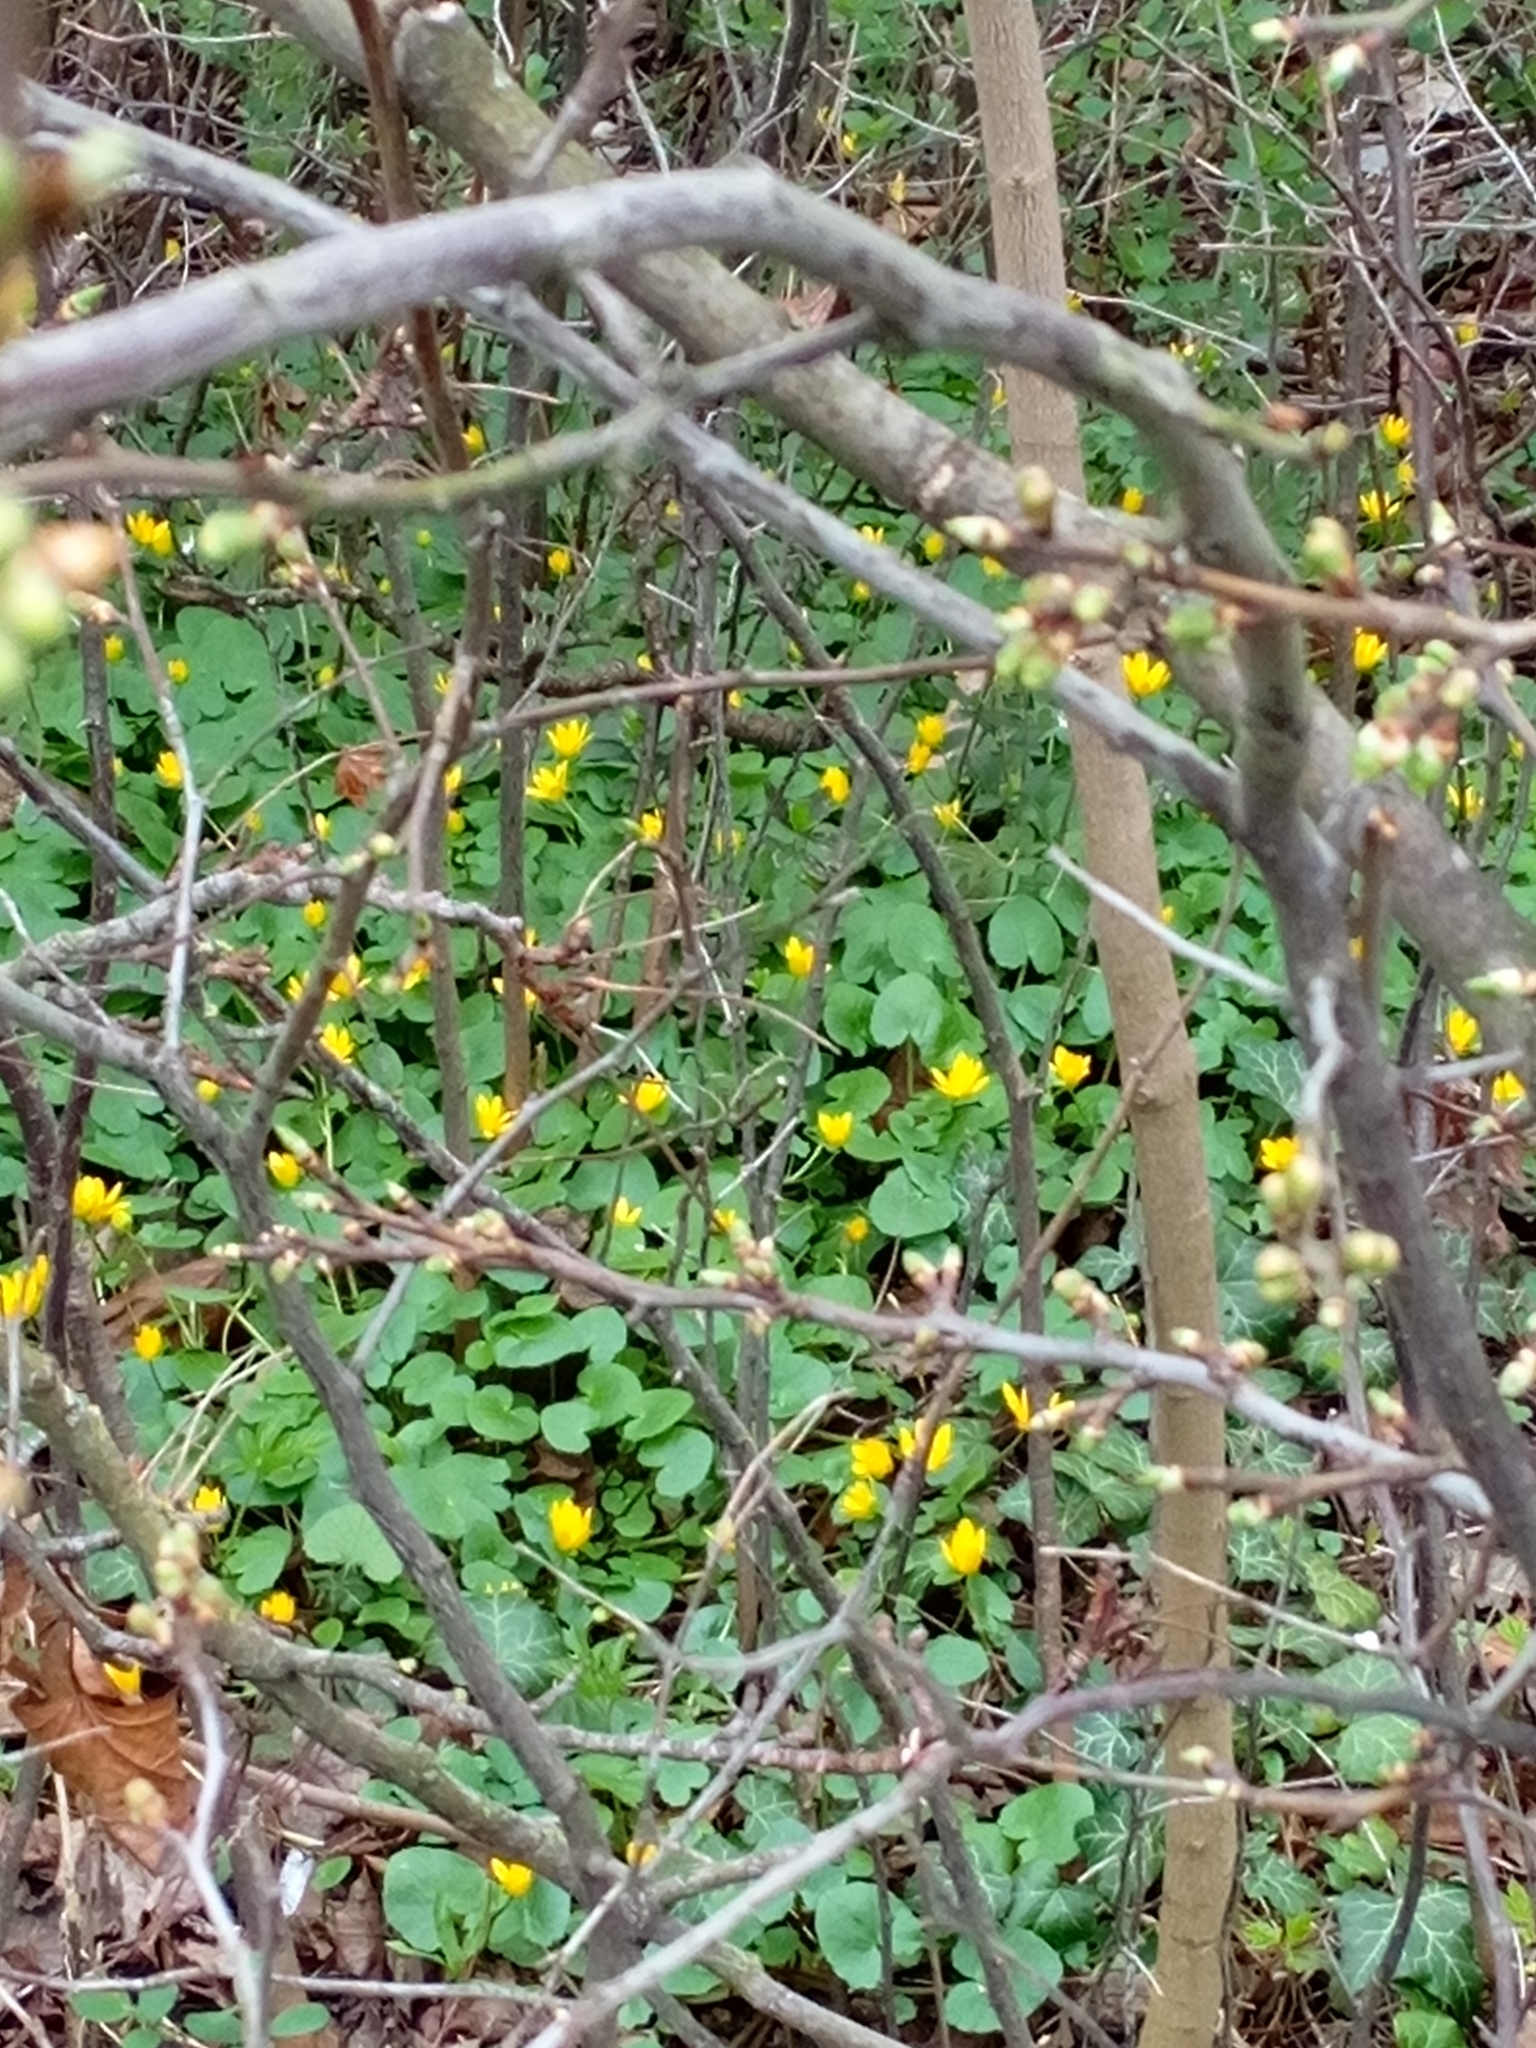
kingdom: Plantae
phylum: Tracheophyta
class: Magnoliopsida
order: Ranunculales
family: Ranunculaceae
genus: Ficaria
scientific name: Ficaria verna
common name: Lesser celandine
